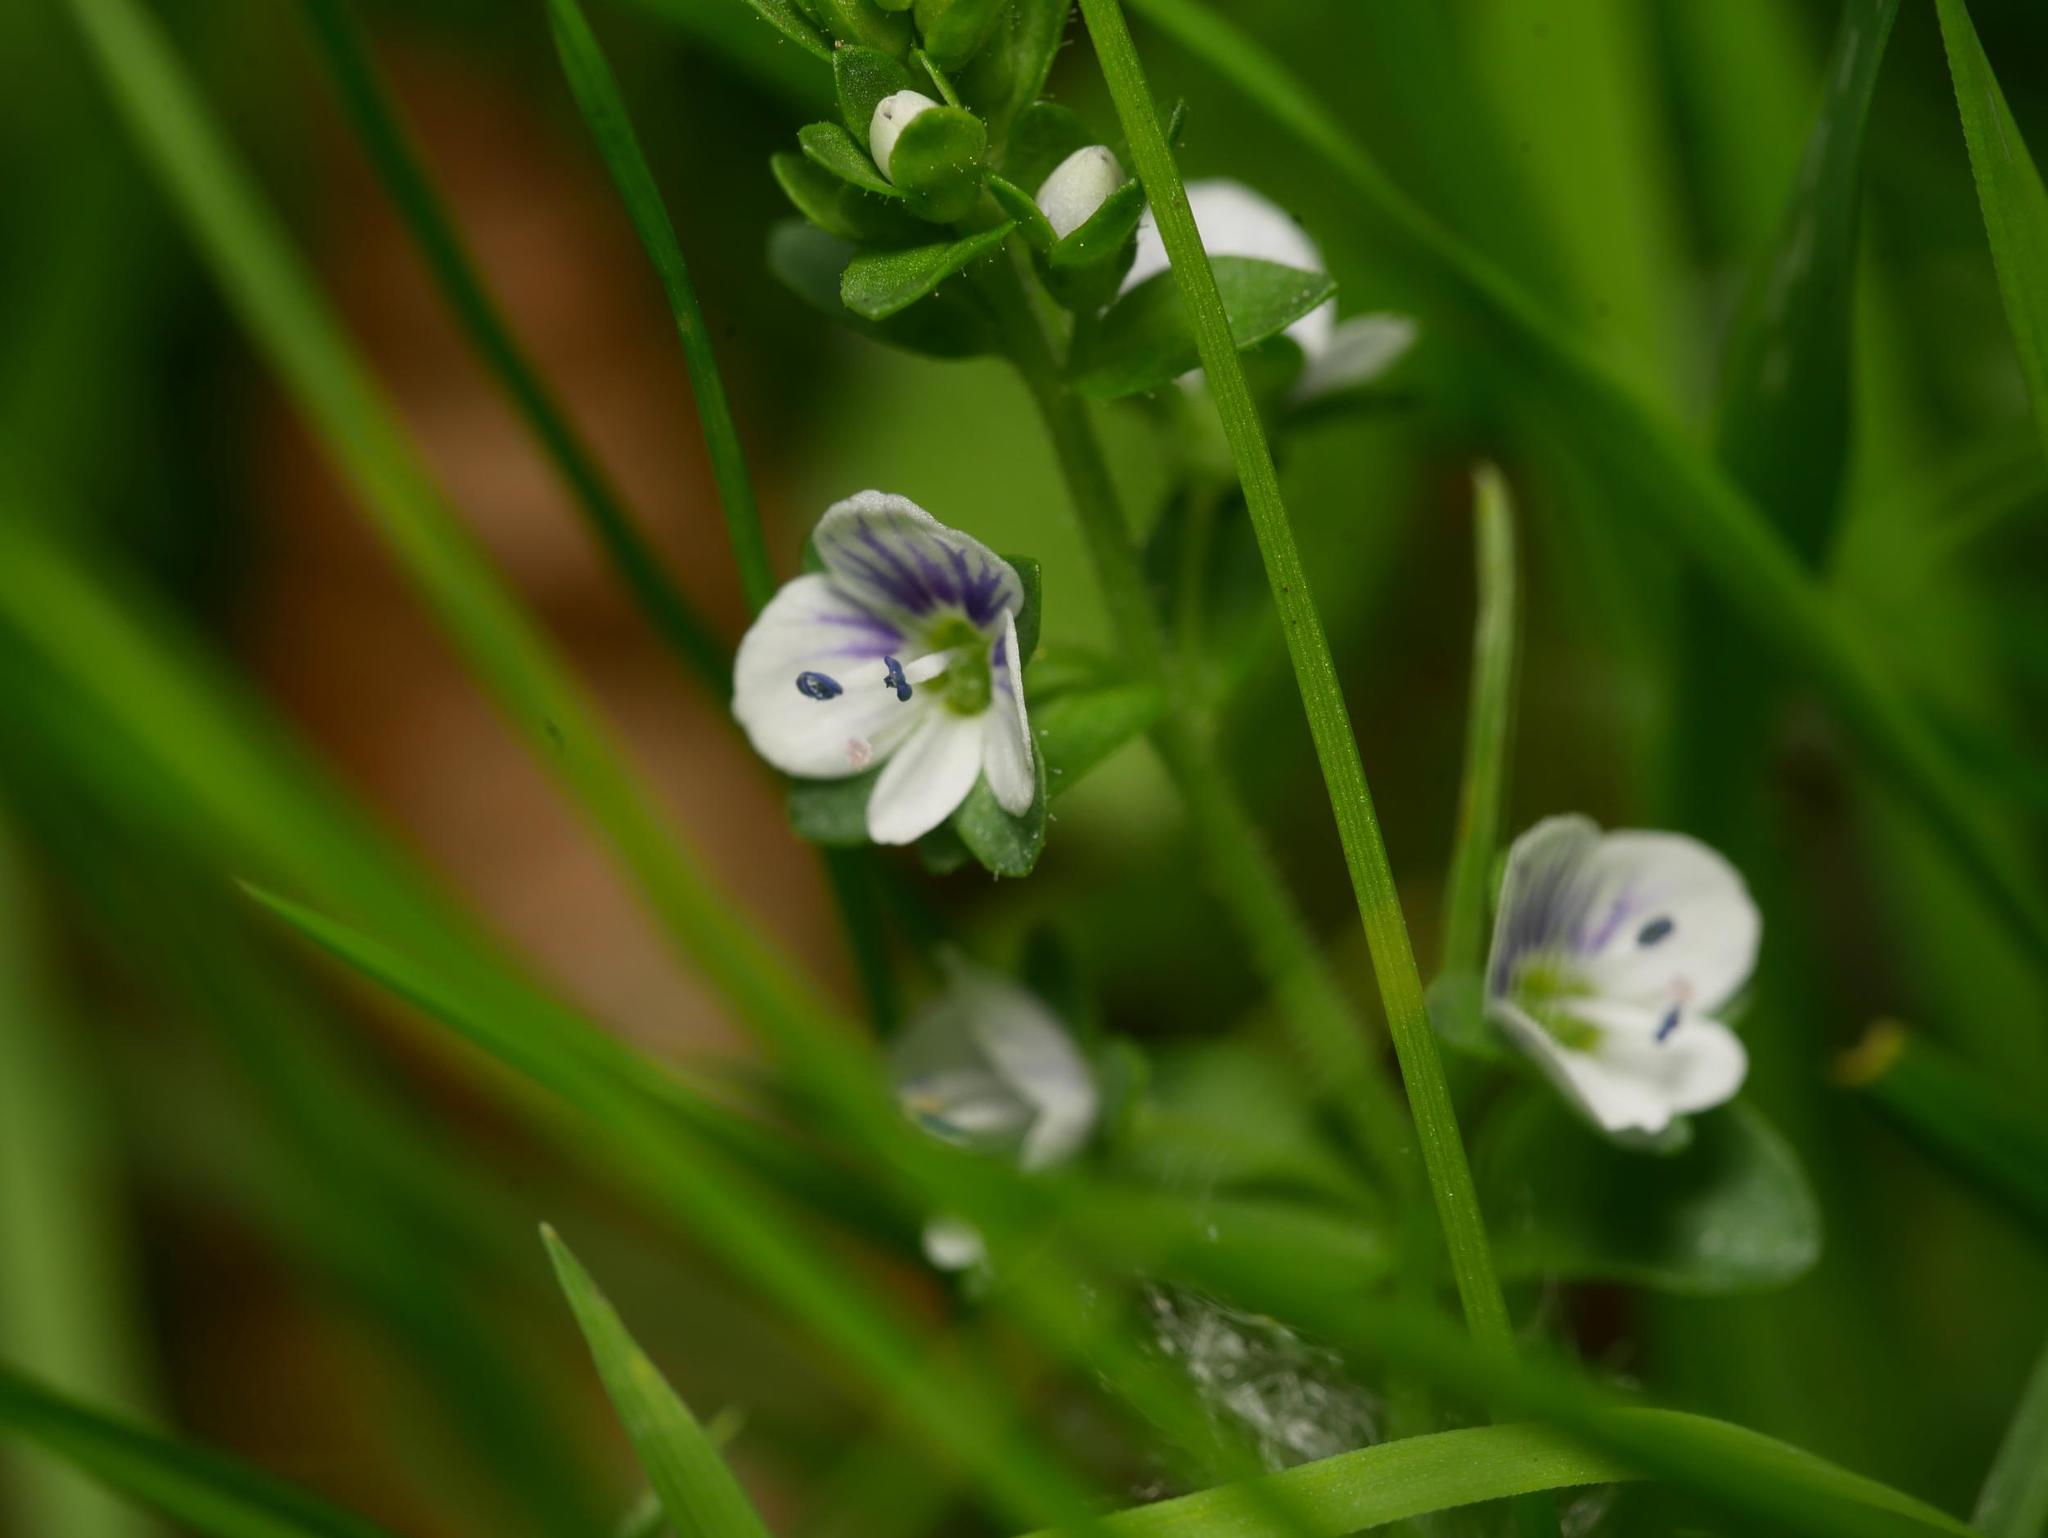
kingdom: Plantae
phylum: Tracheophyta
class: Magnoliopsida
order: Lamiales
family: Plantaginaceae
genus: Veronica
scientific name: Veronica serpyllifolia
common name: Thyme-leaved speedwell
